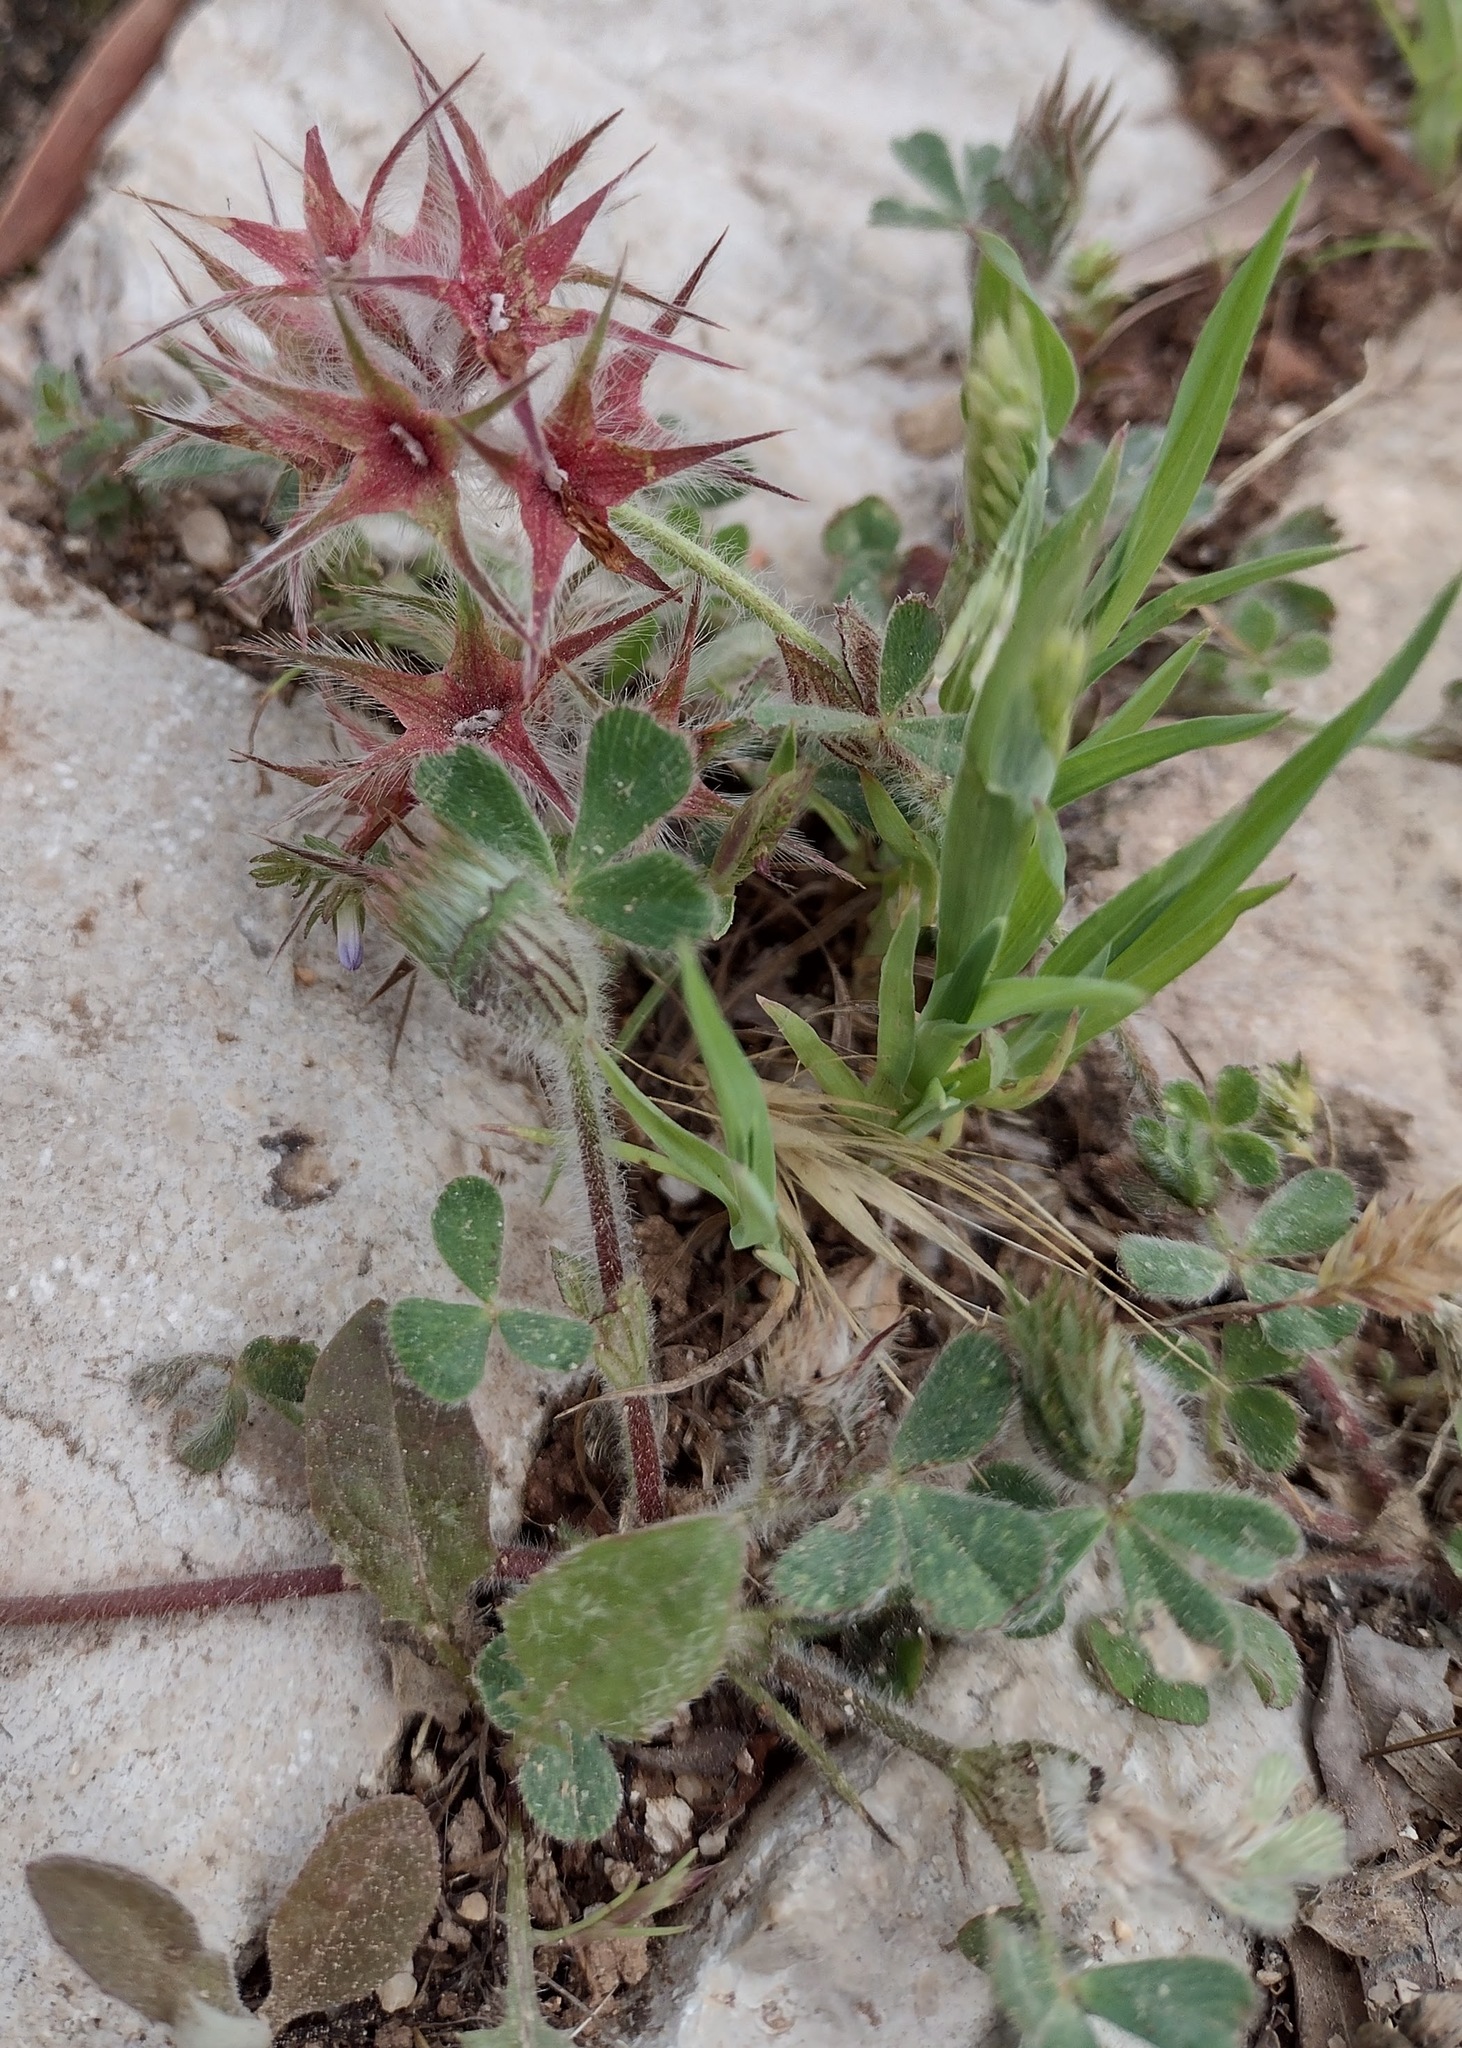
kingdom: Plantae
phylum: Tracheophyta
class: Magnoliopsida
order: Fabales
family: Fabaceae
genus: Trifolium
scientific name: Trifolium stellatum
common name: Starry clover
